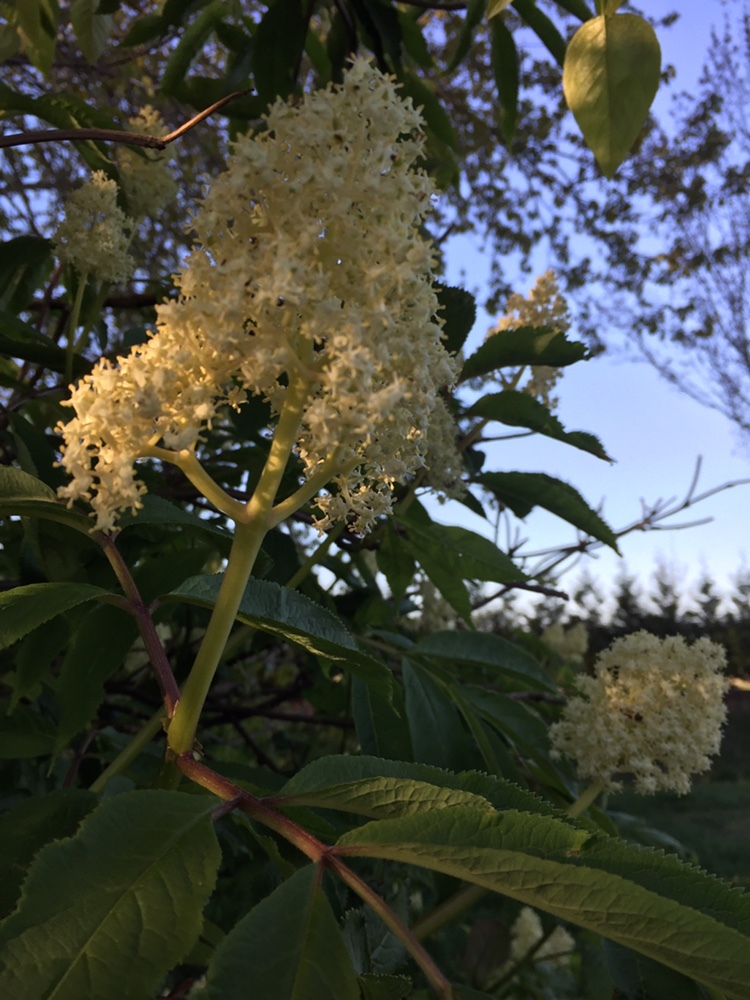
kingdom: Plantae
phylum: Tracheophyta
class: Magnoliopsida
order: Dipsacales
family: Viburnaceae
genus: Sambucus
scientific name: Sambucus racemosa
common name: Red-berried elder
